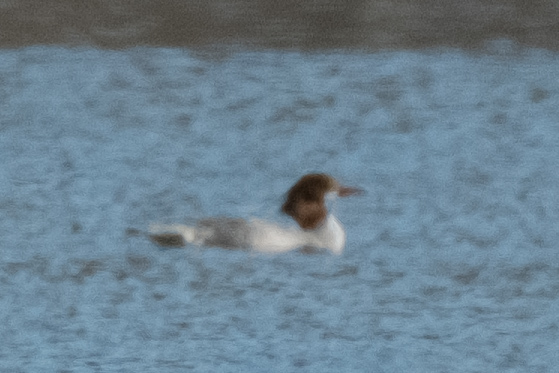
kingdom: Animalia
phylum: Chordata
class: Aves
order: Anseriformes
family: Anatidae
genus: Mergus
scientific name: Mergus merganser
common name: Common merganser
